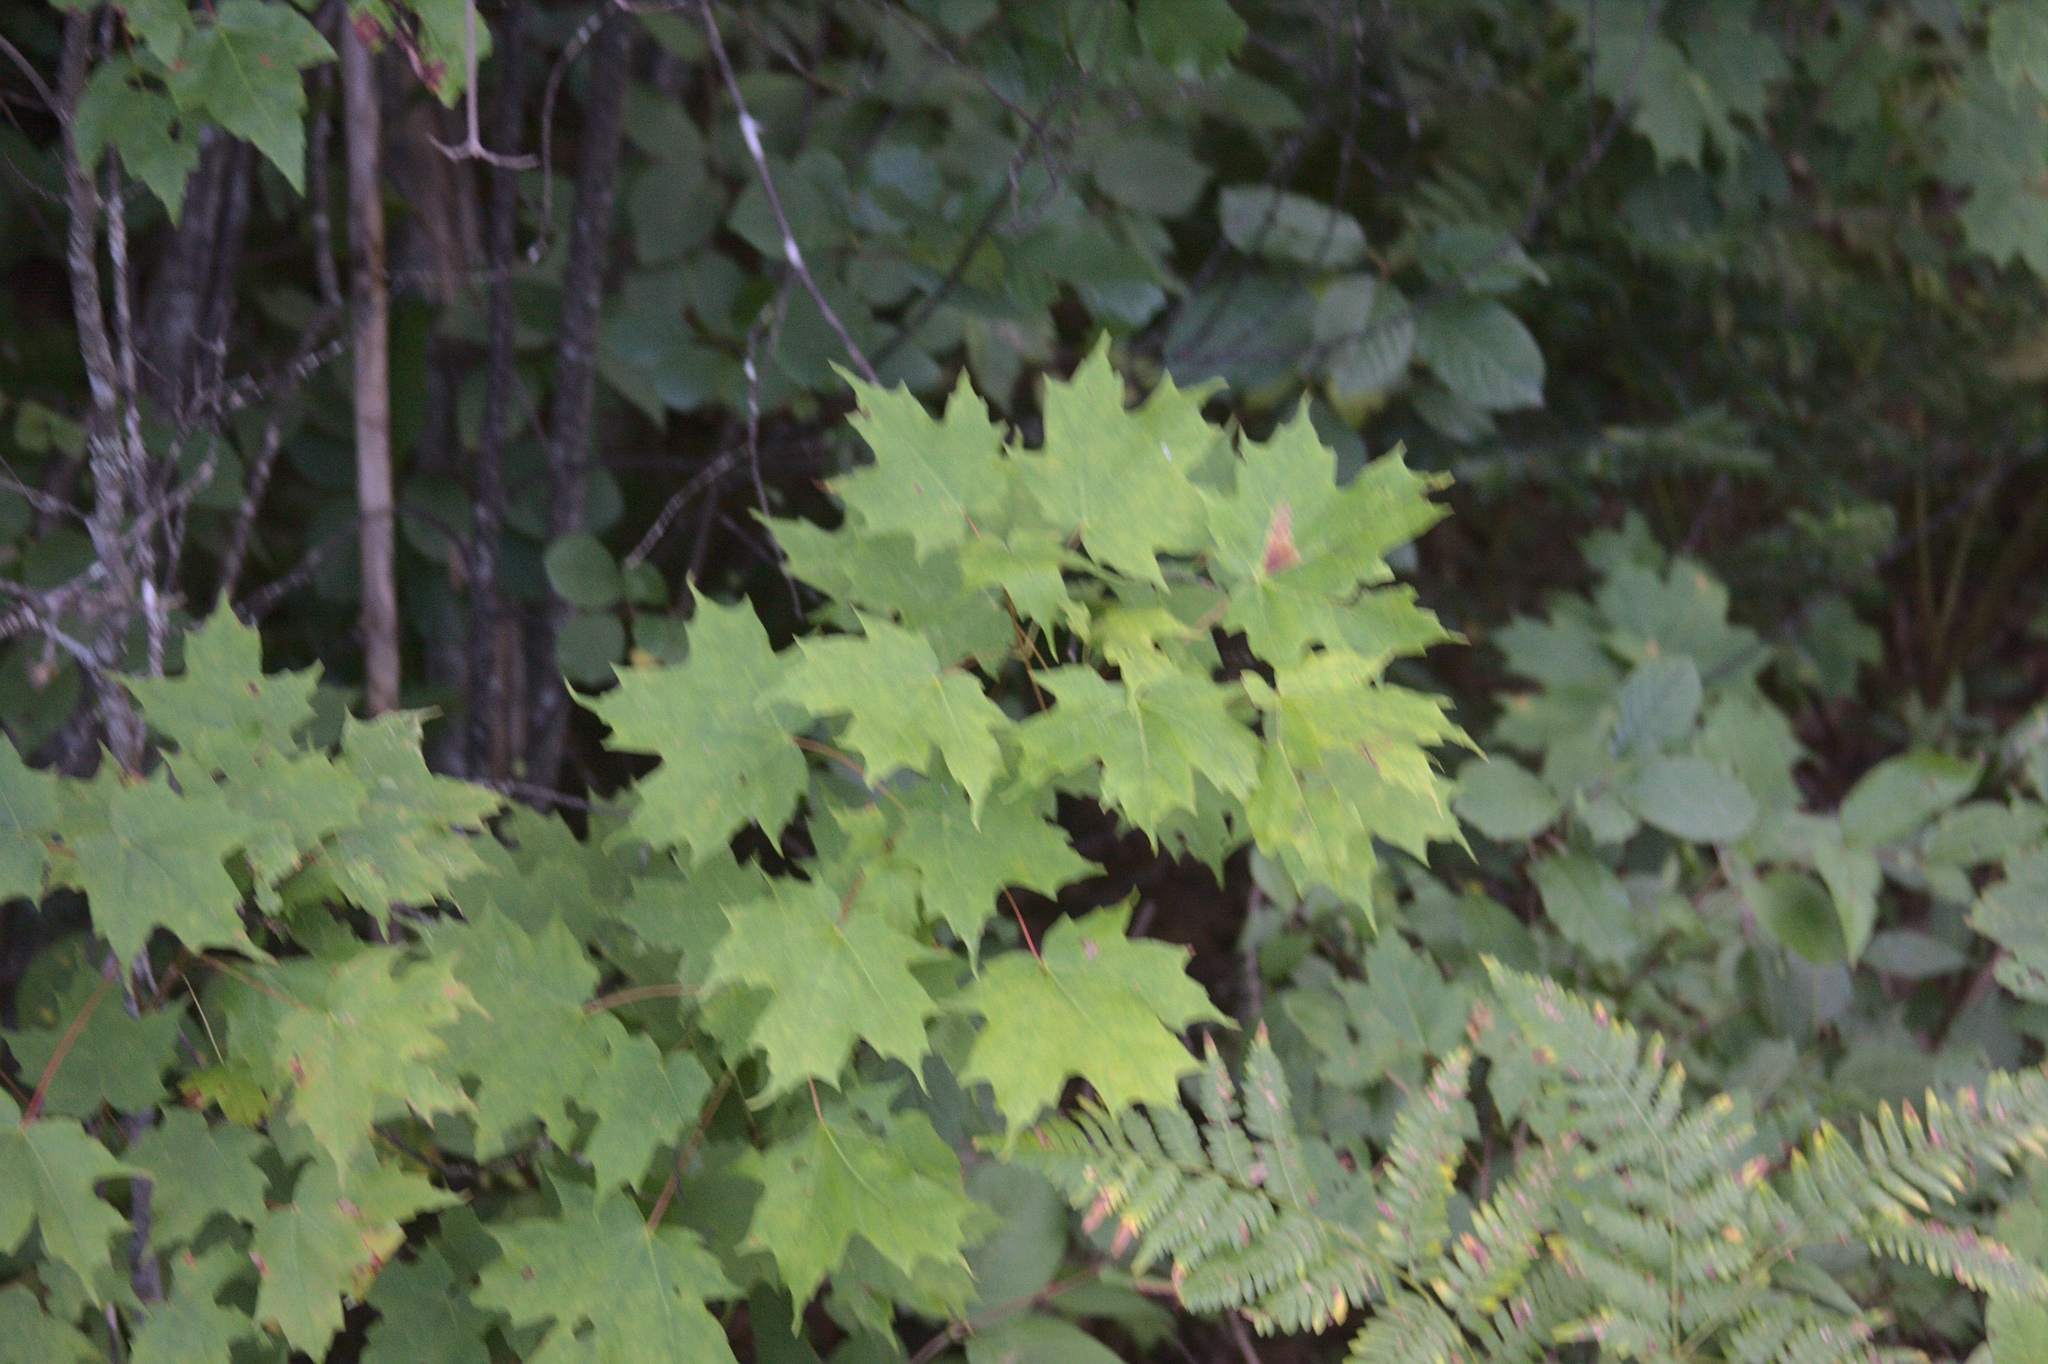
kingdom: Plantae
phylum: Tracheophyta
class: Magnoliopsida
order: Sapindales
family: Sapindaceae
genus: Acer
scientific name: Acer saccharum
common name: Sugar maple
